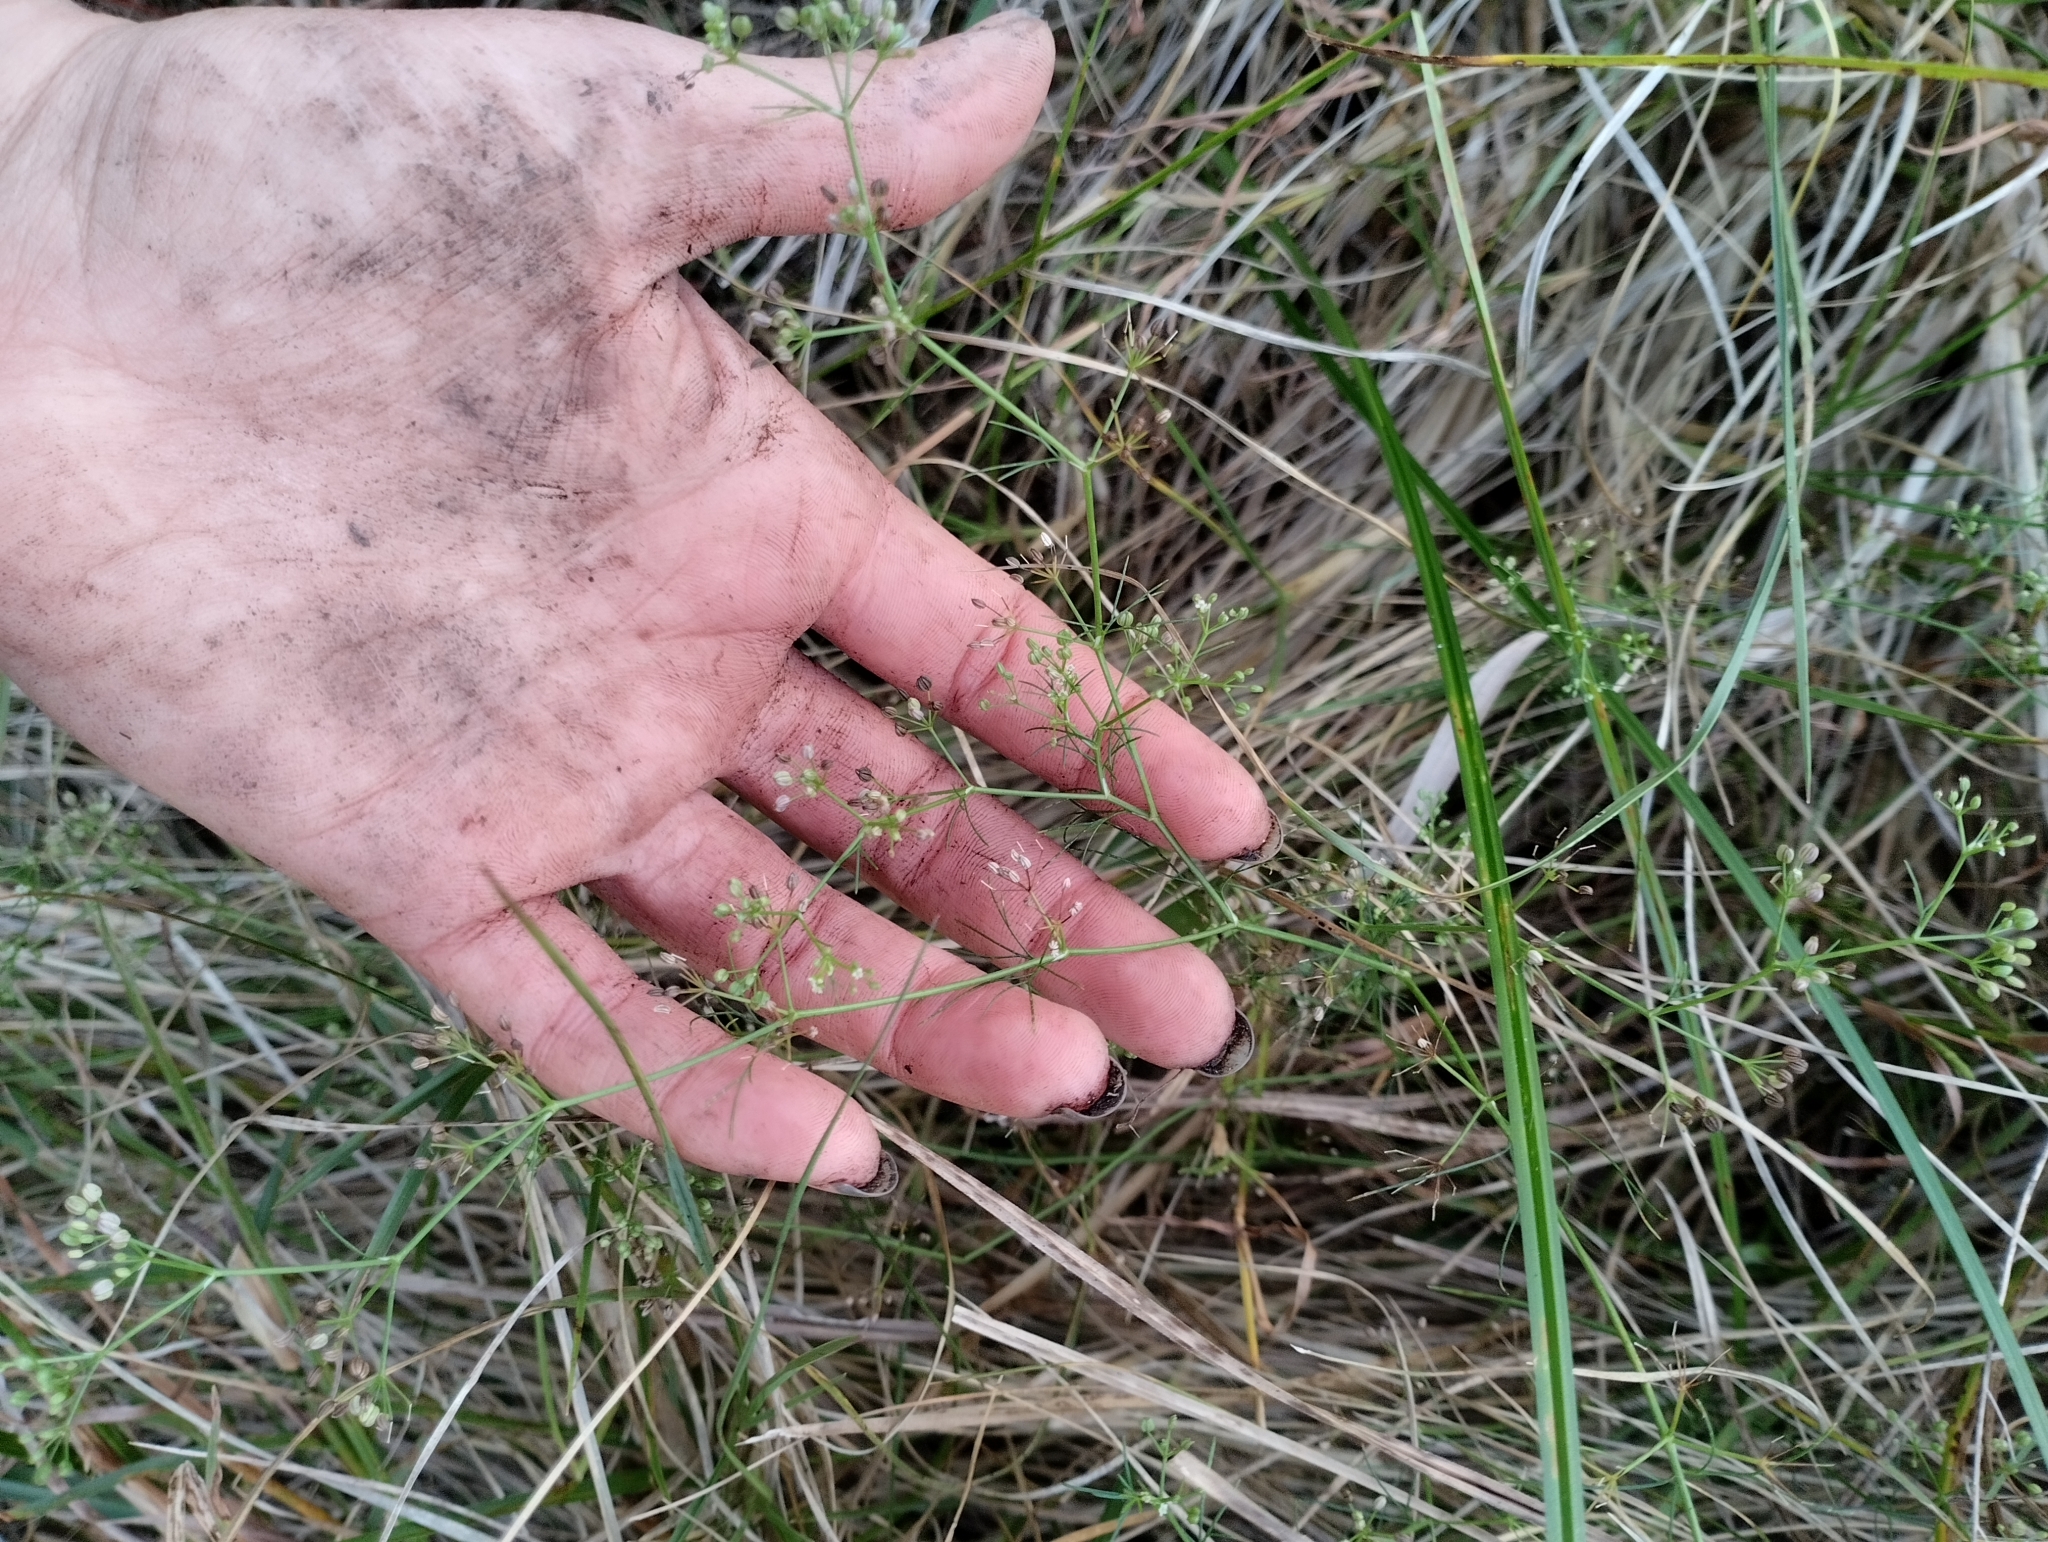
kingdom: Plantae
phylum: Tracheophyta
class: Magnoliopsida
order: Apiales
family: Apiaceae
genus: Cyclospermum
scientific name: Cyclospermum leptophyllum
